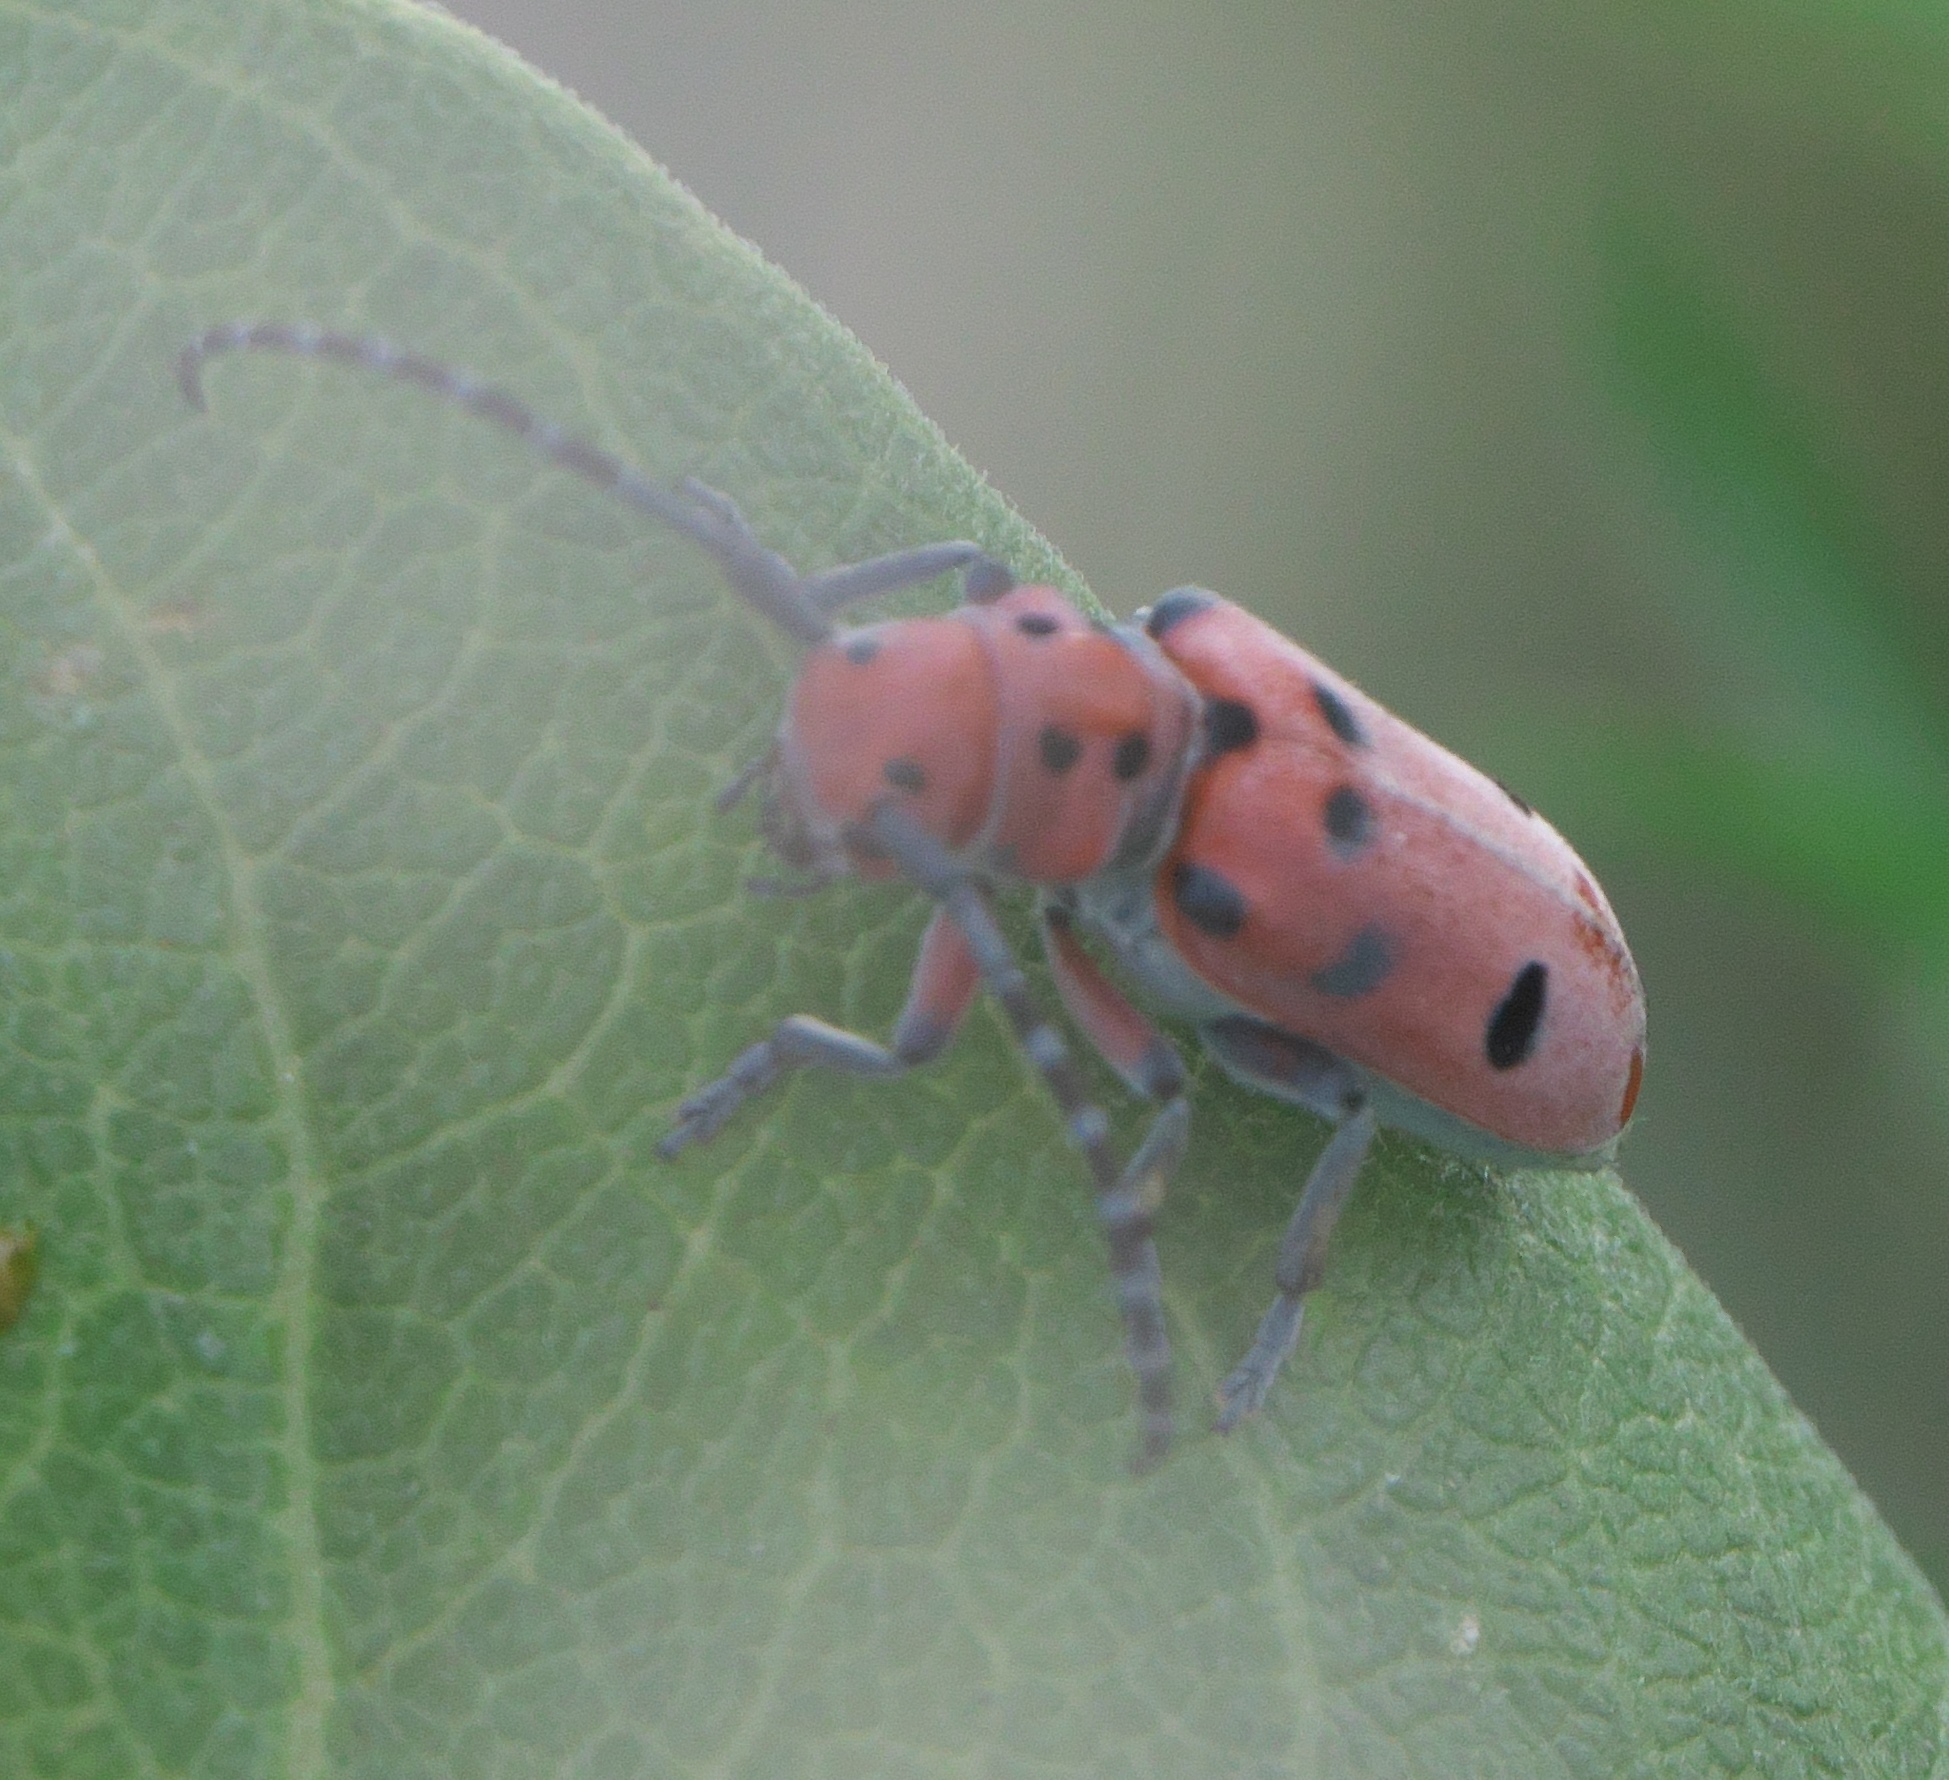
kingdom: Animalia
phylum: Arthropoda
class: Insecta
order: Coleoptera
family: Cerambycidae
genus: Tetraopes
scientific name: Tetraopes femoratus
